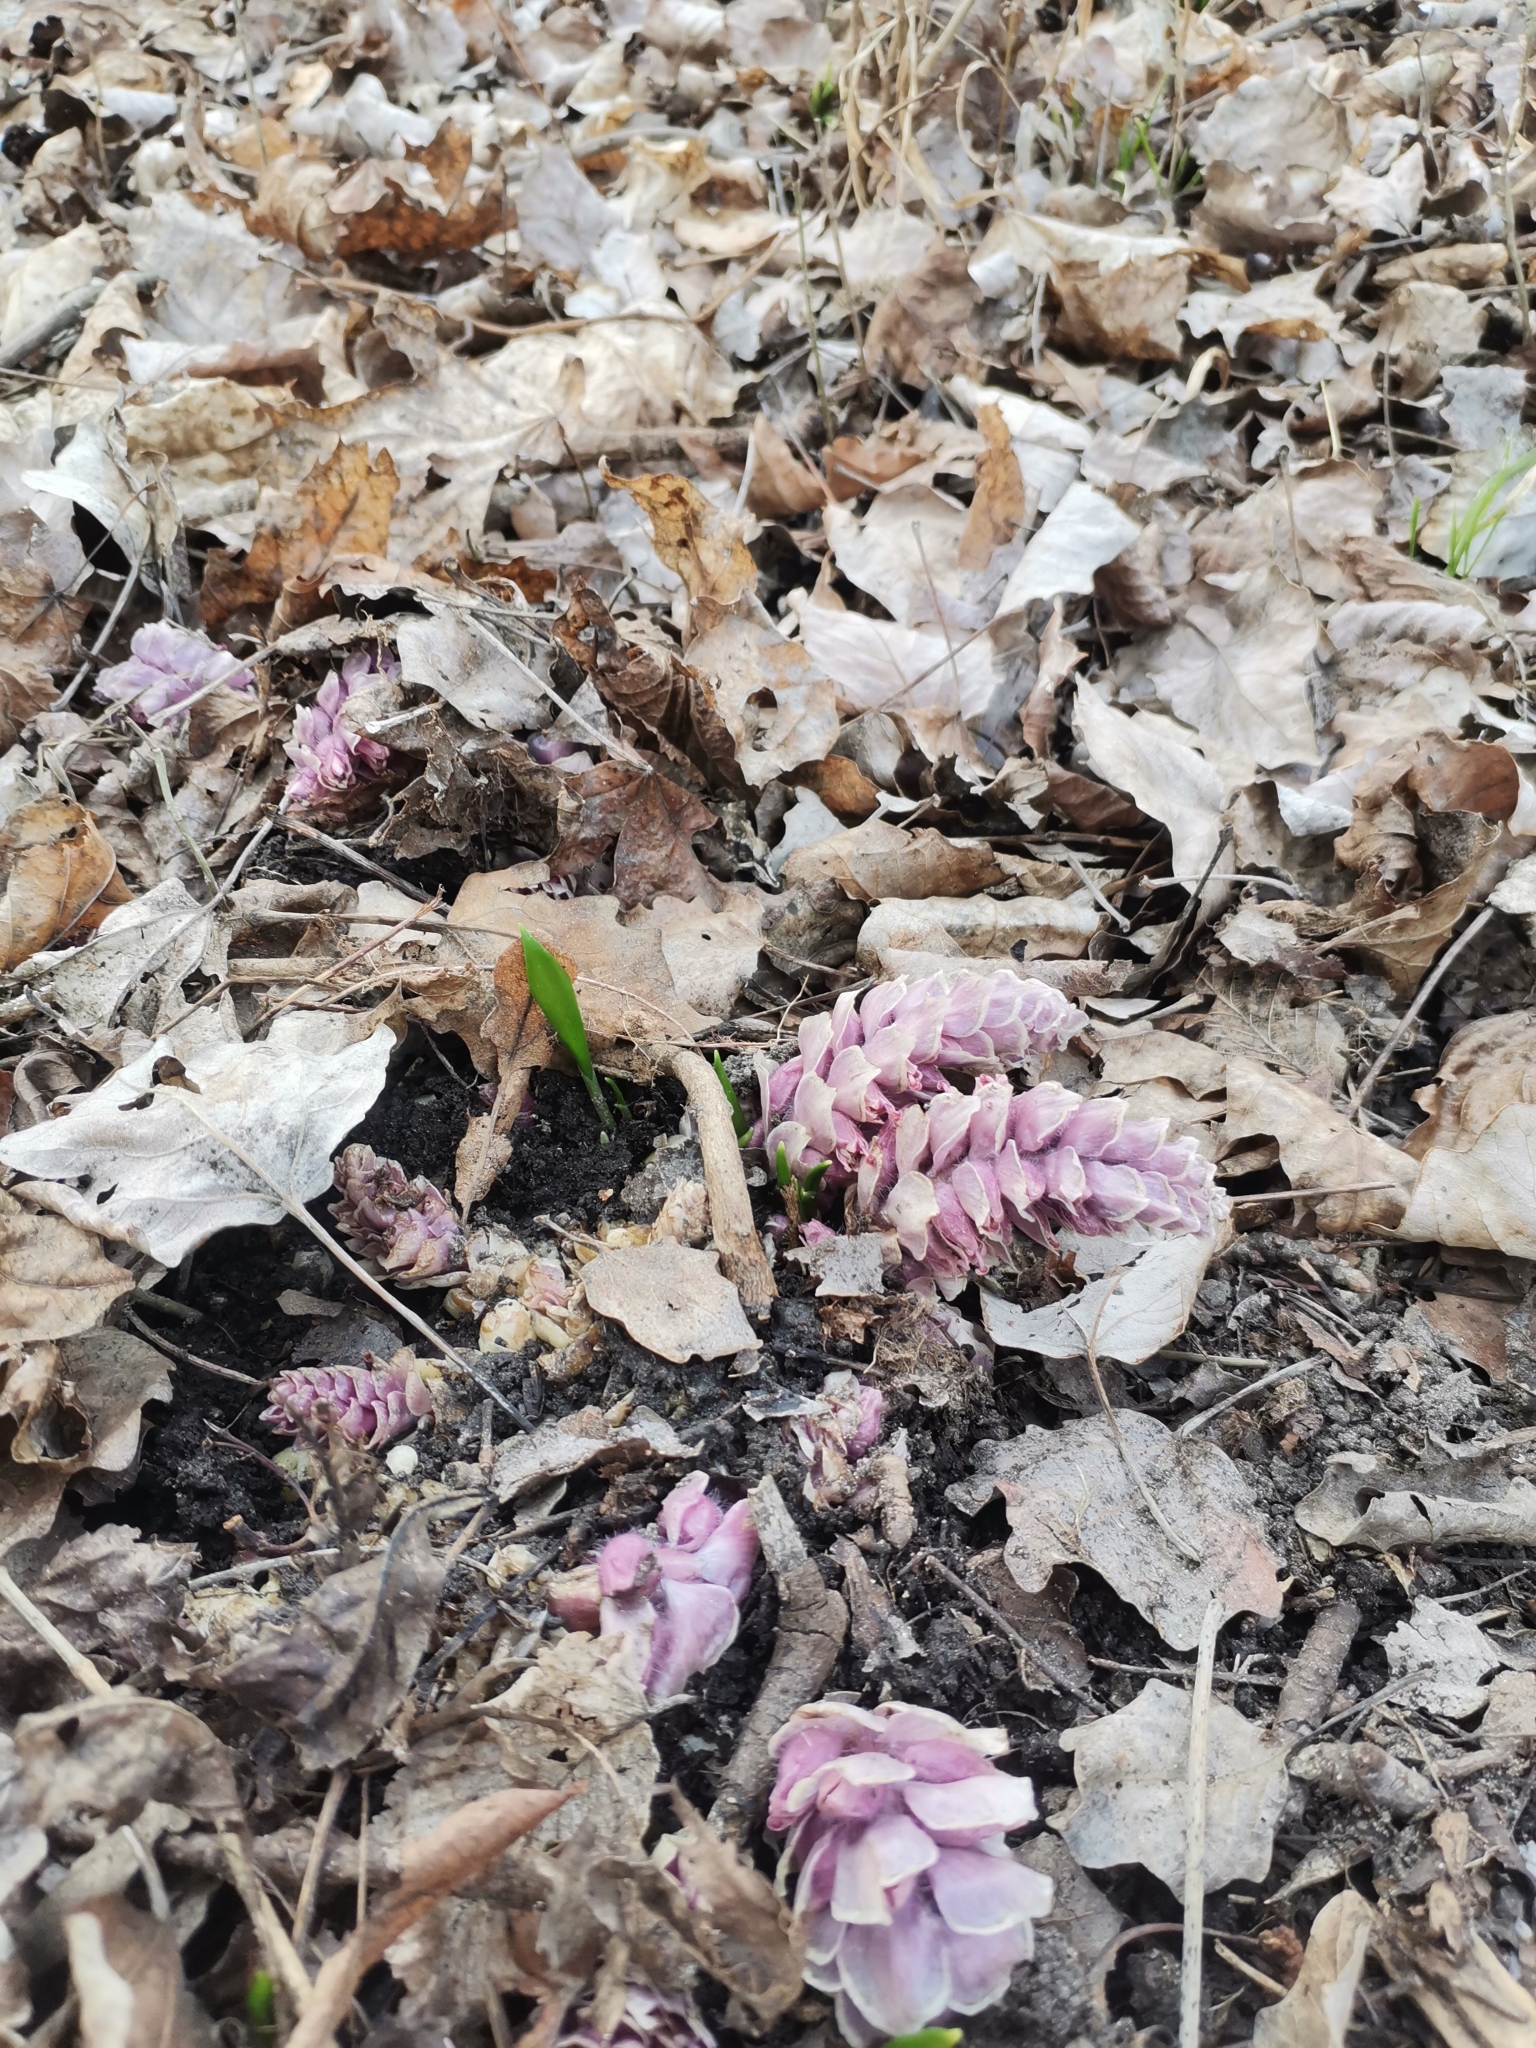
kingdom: Plantae
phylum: Tracheophyta
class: Magnoliopsida
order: Lamiales
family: Orobanchaceae
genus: Lathraea
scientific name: Lathraea squamaria
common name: Toothwort
